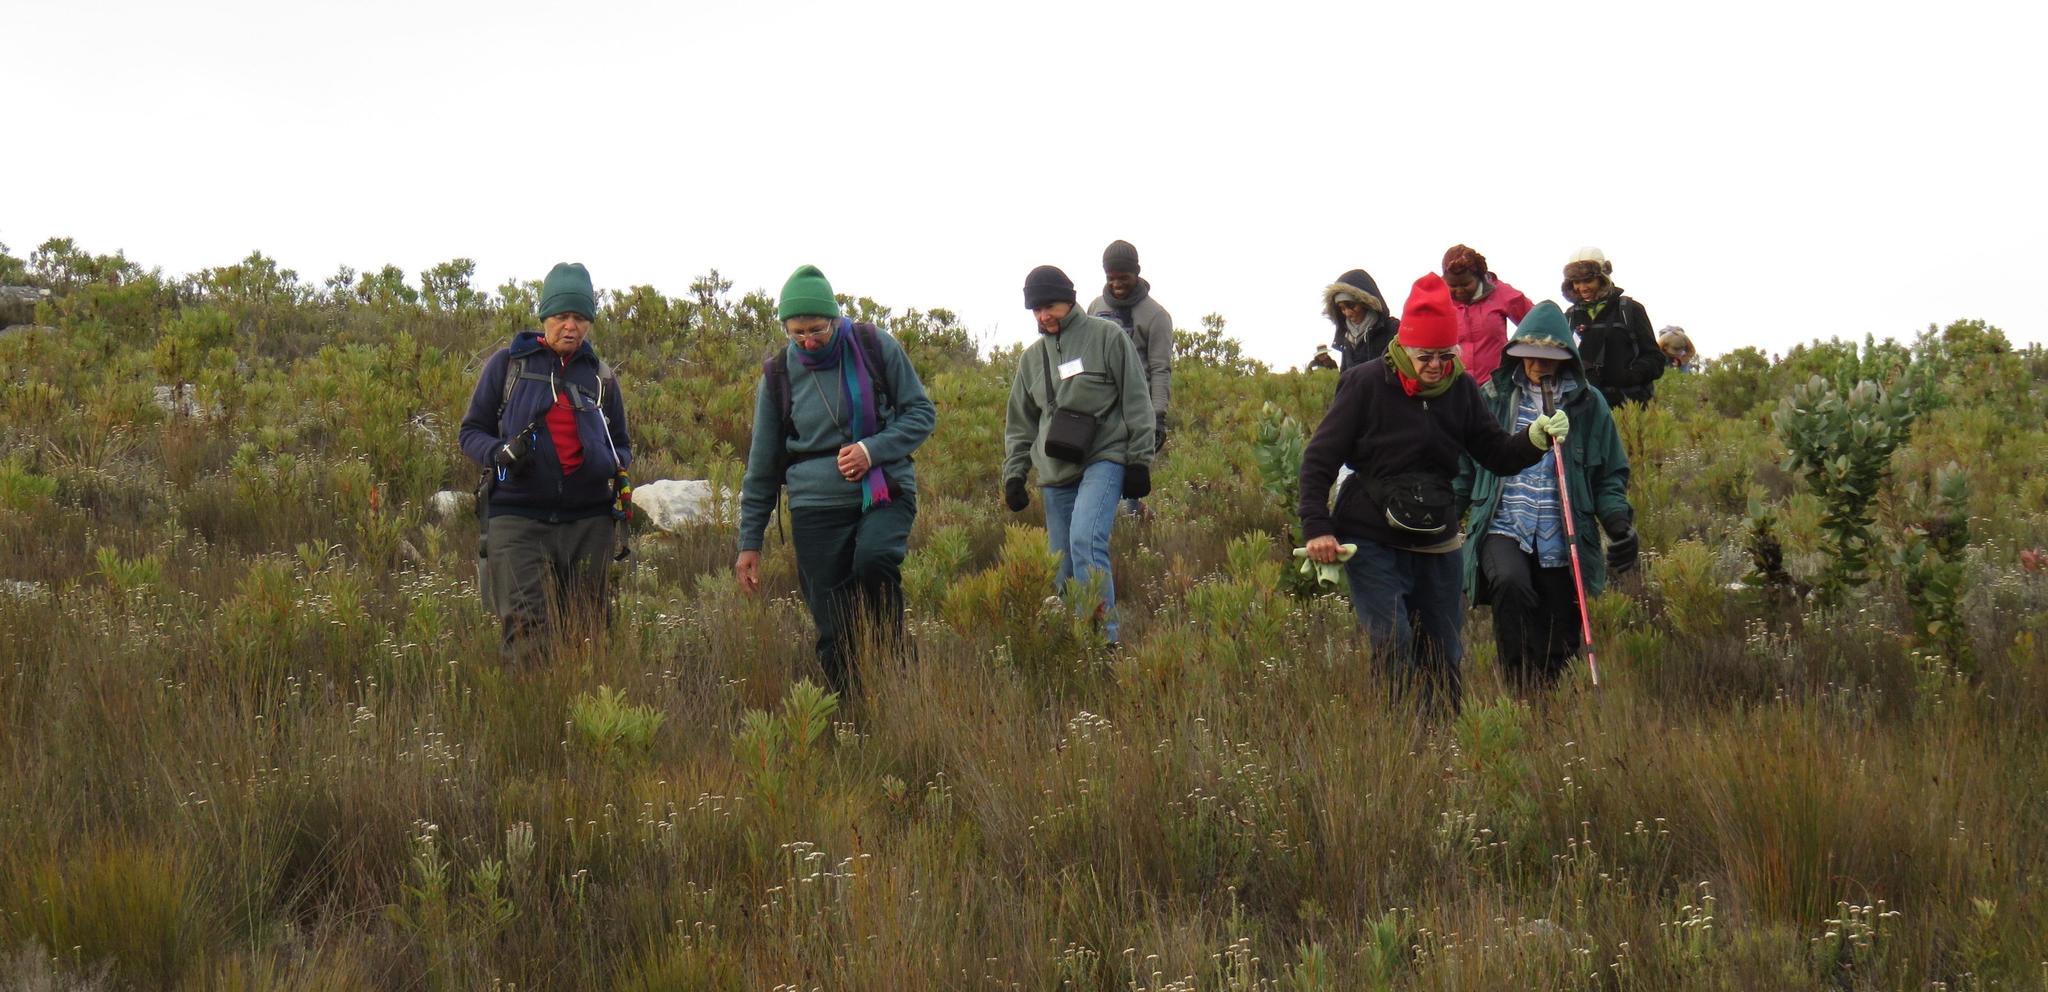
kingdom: Plantae
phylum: Tracheophyta
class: Magnoliopsida
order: Proteales
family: Proteaceae
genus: Protea
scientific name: Protea repens
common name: Sugarbush
